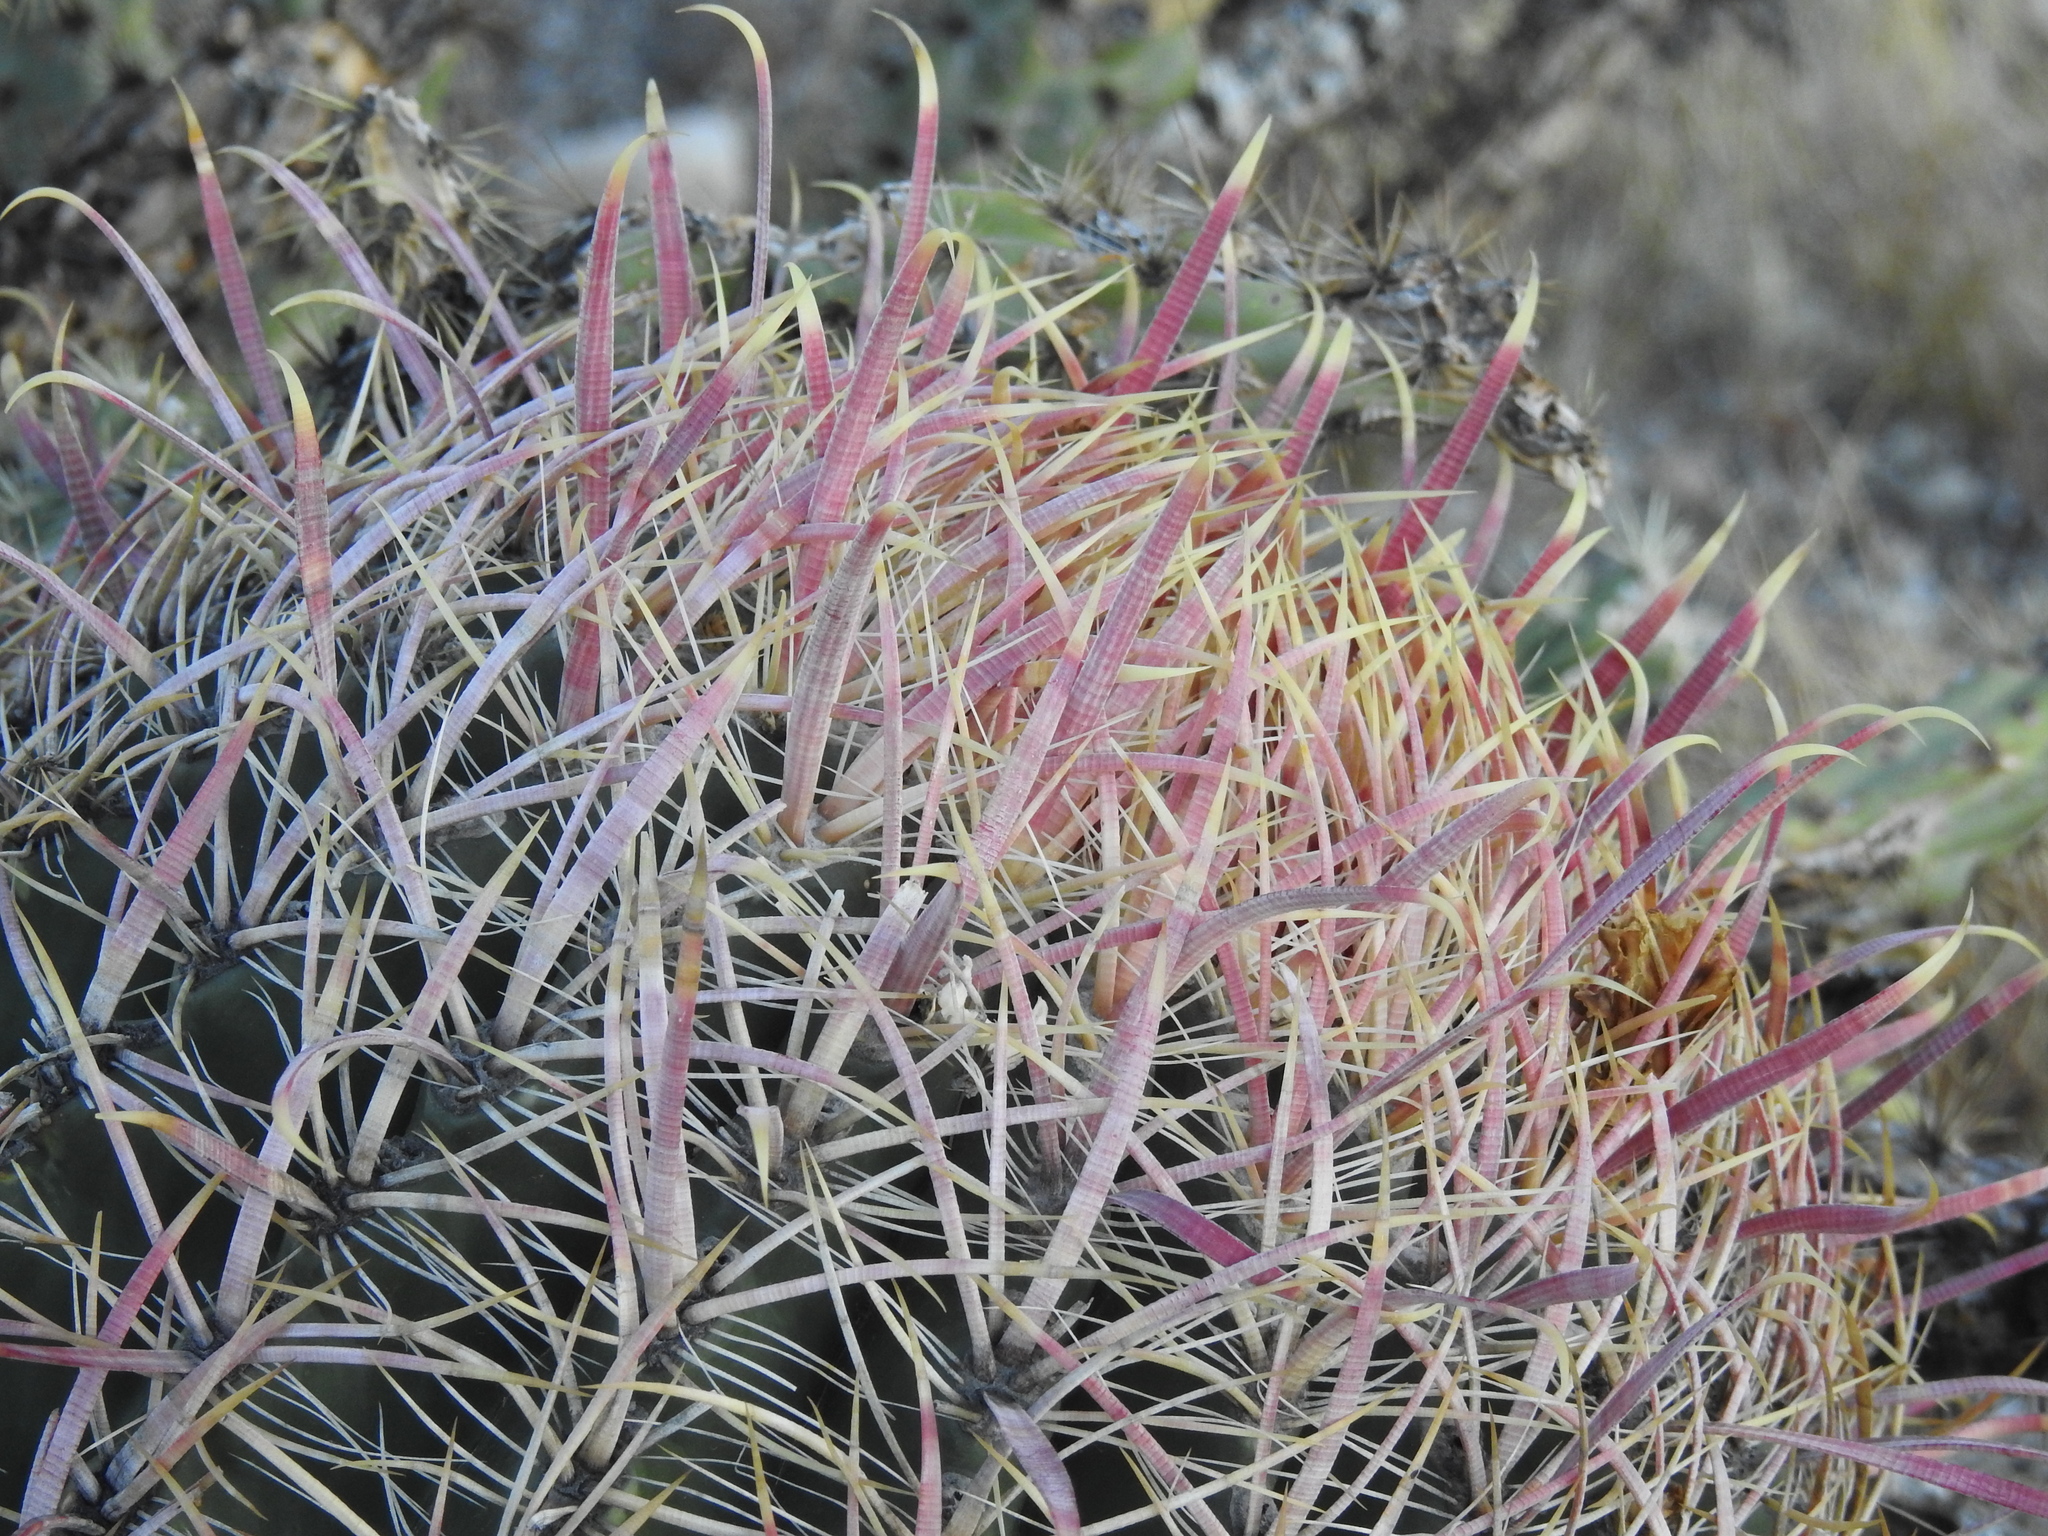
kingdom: Plantae
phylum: Tracheophyta
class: Magnoliopsida
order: Caryophyllales
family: Cactaceae
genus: Ferocactus
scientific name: Ferocactus cylindraceus
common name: California barrel cactus
